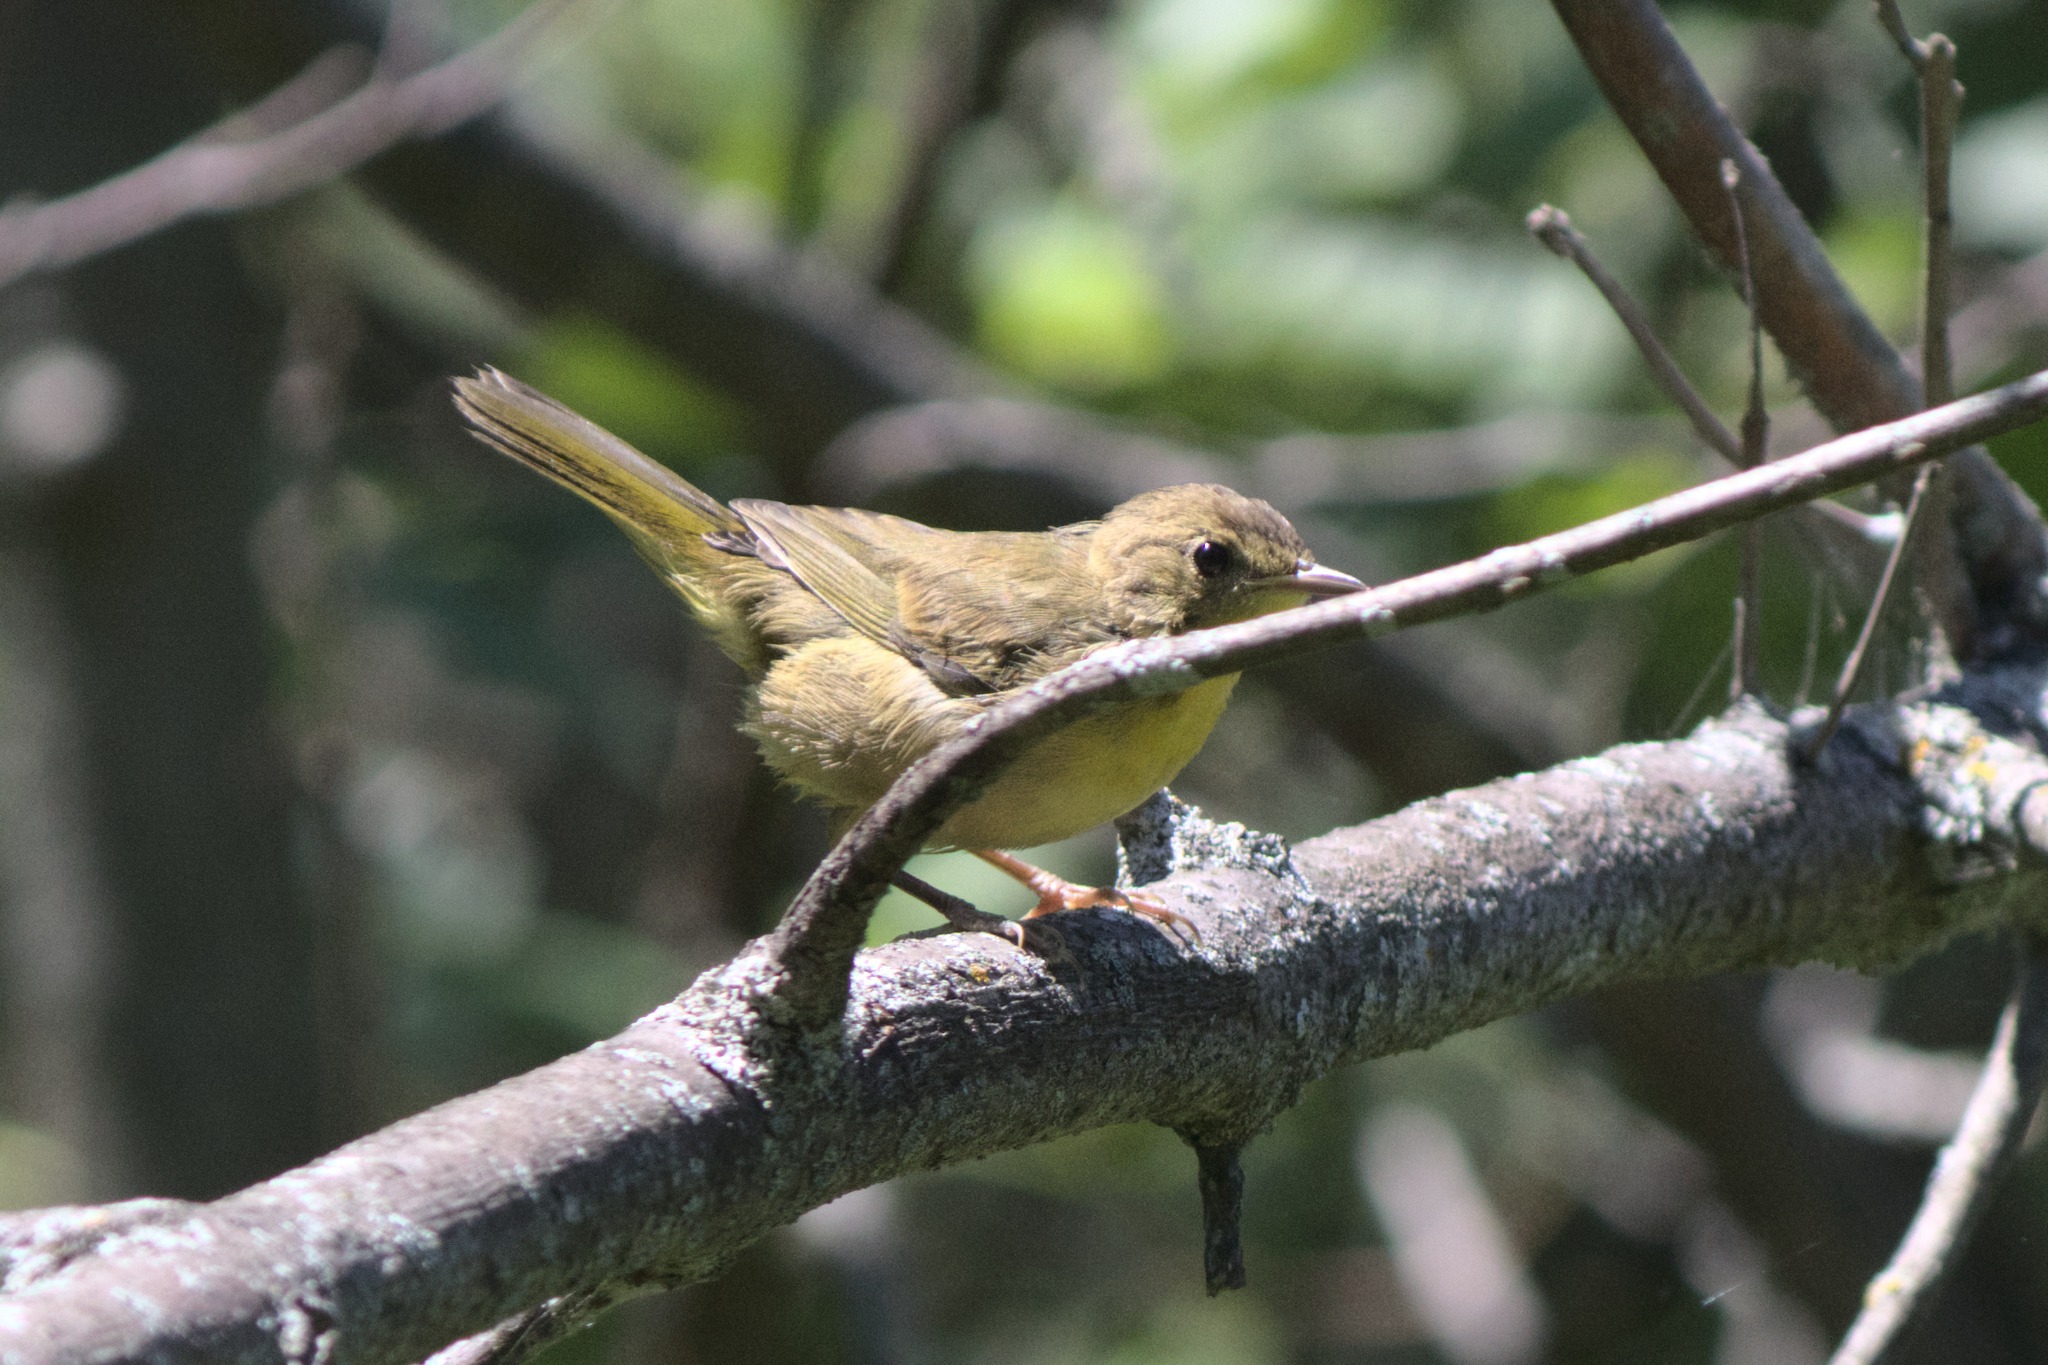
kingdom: Animalia
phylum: Chordata
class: Aves
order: Passeriformes
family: Parulidae
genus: Geothlypis
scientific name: Geothlypis trichas
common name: Common yellowthroat
